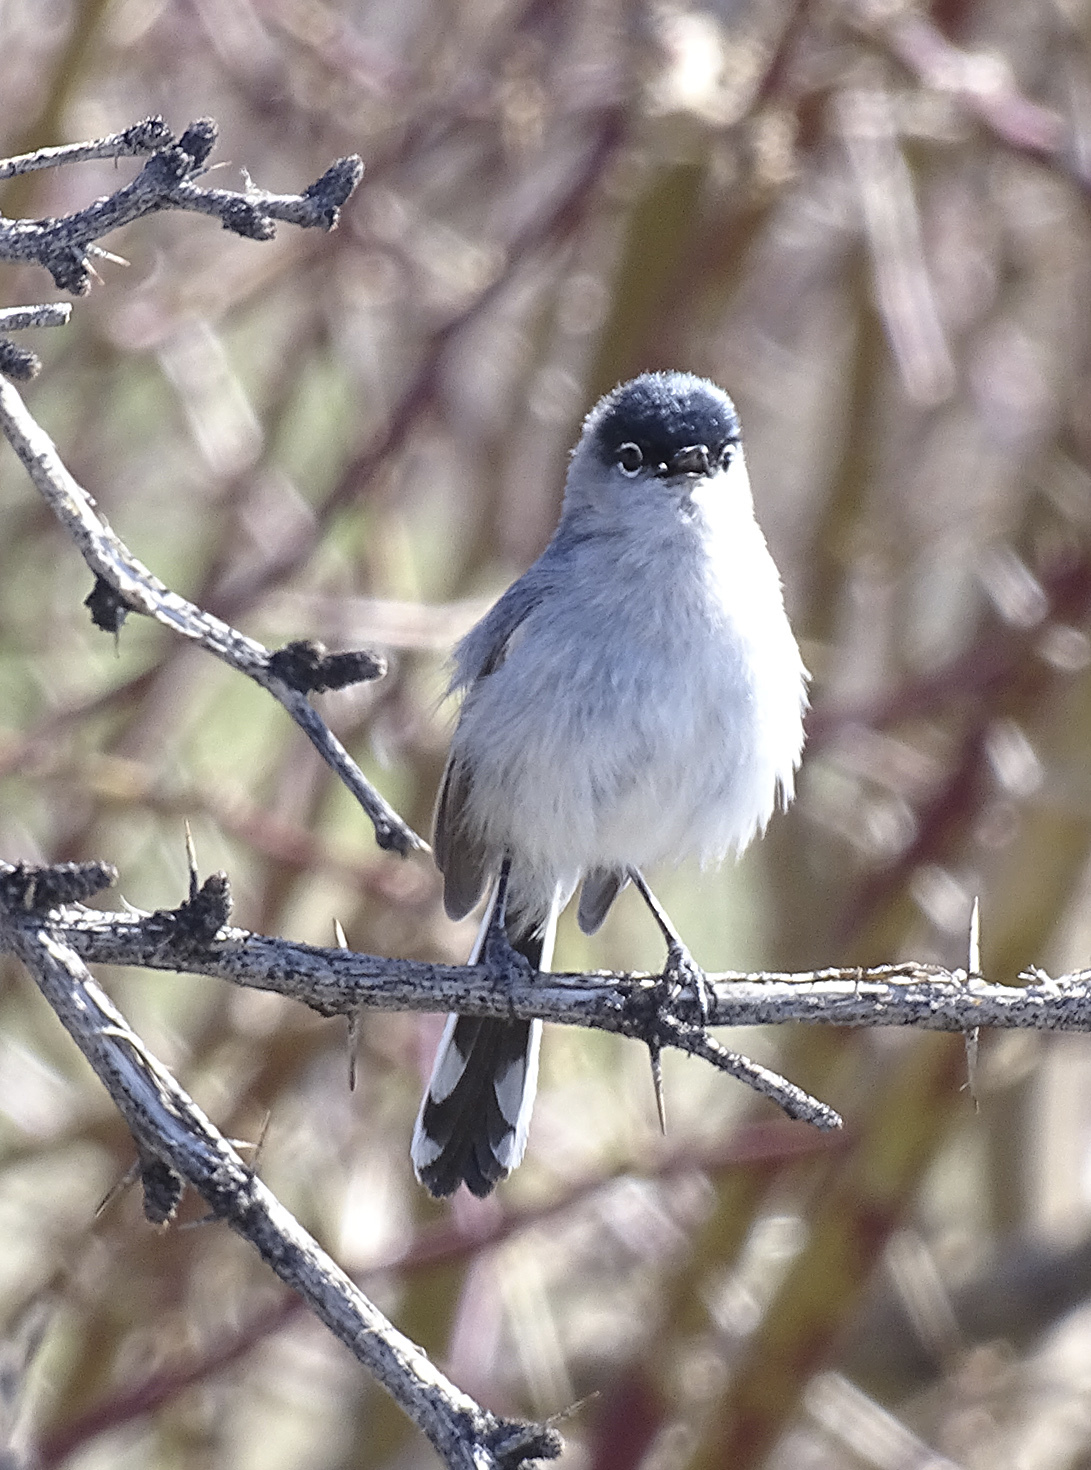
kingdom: Animalia
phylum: Chordata
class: Aves
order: Passeriformes
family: Polioptilidae
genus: Polioptila
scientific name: Polioptila melanura
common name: Black-tailed gnatcatcher
